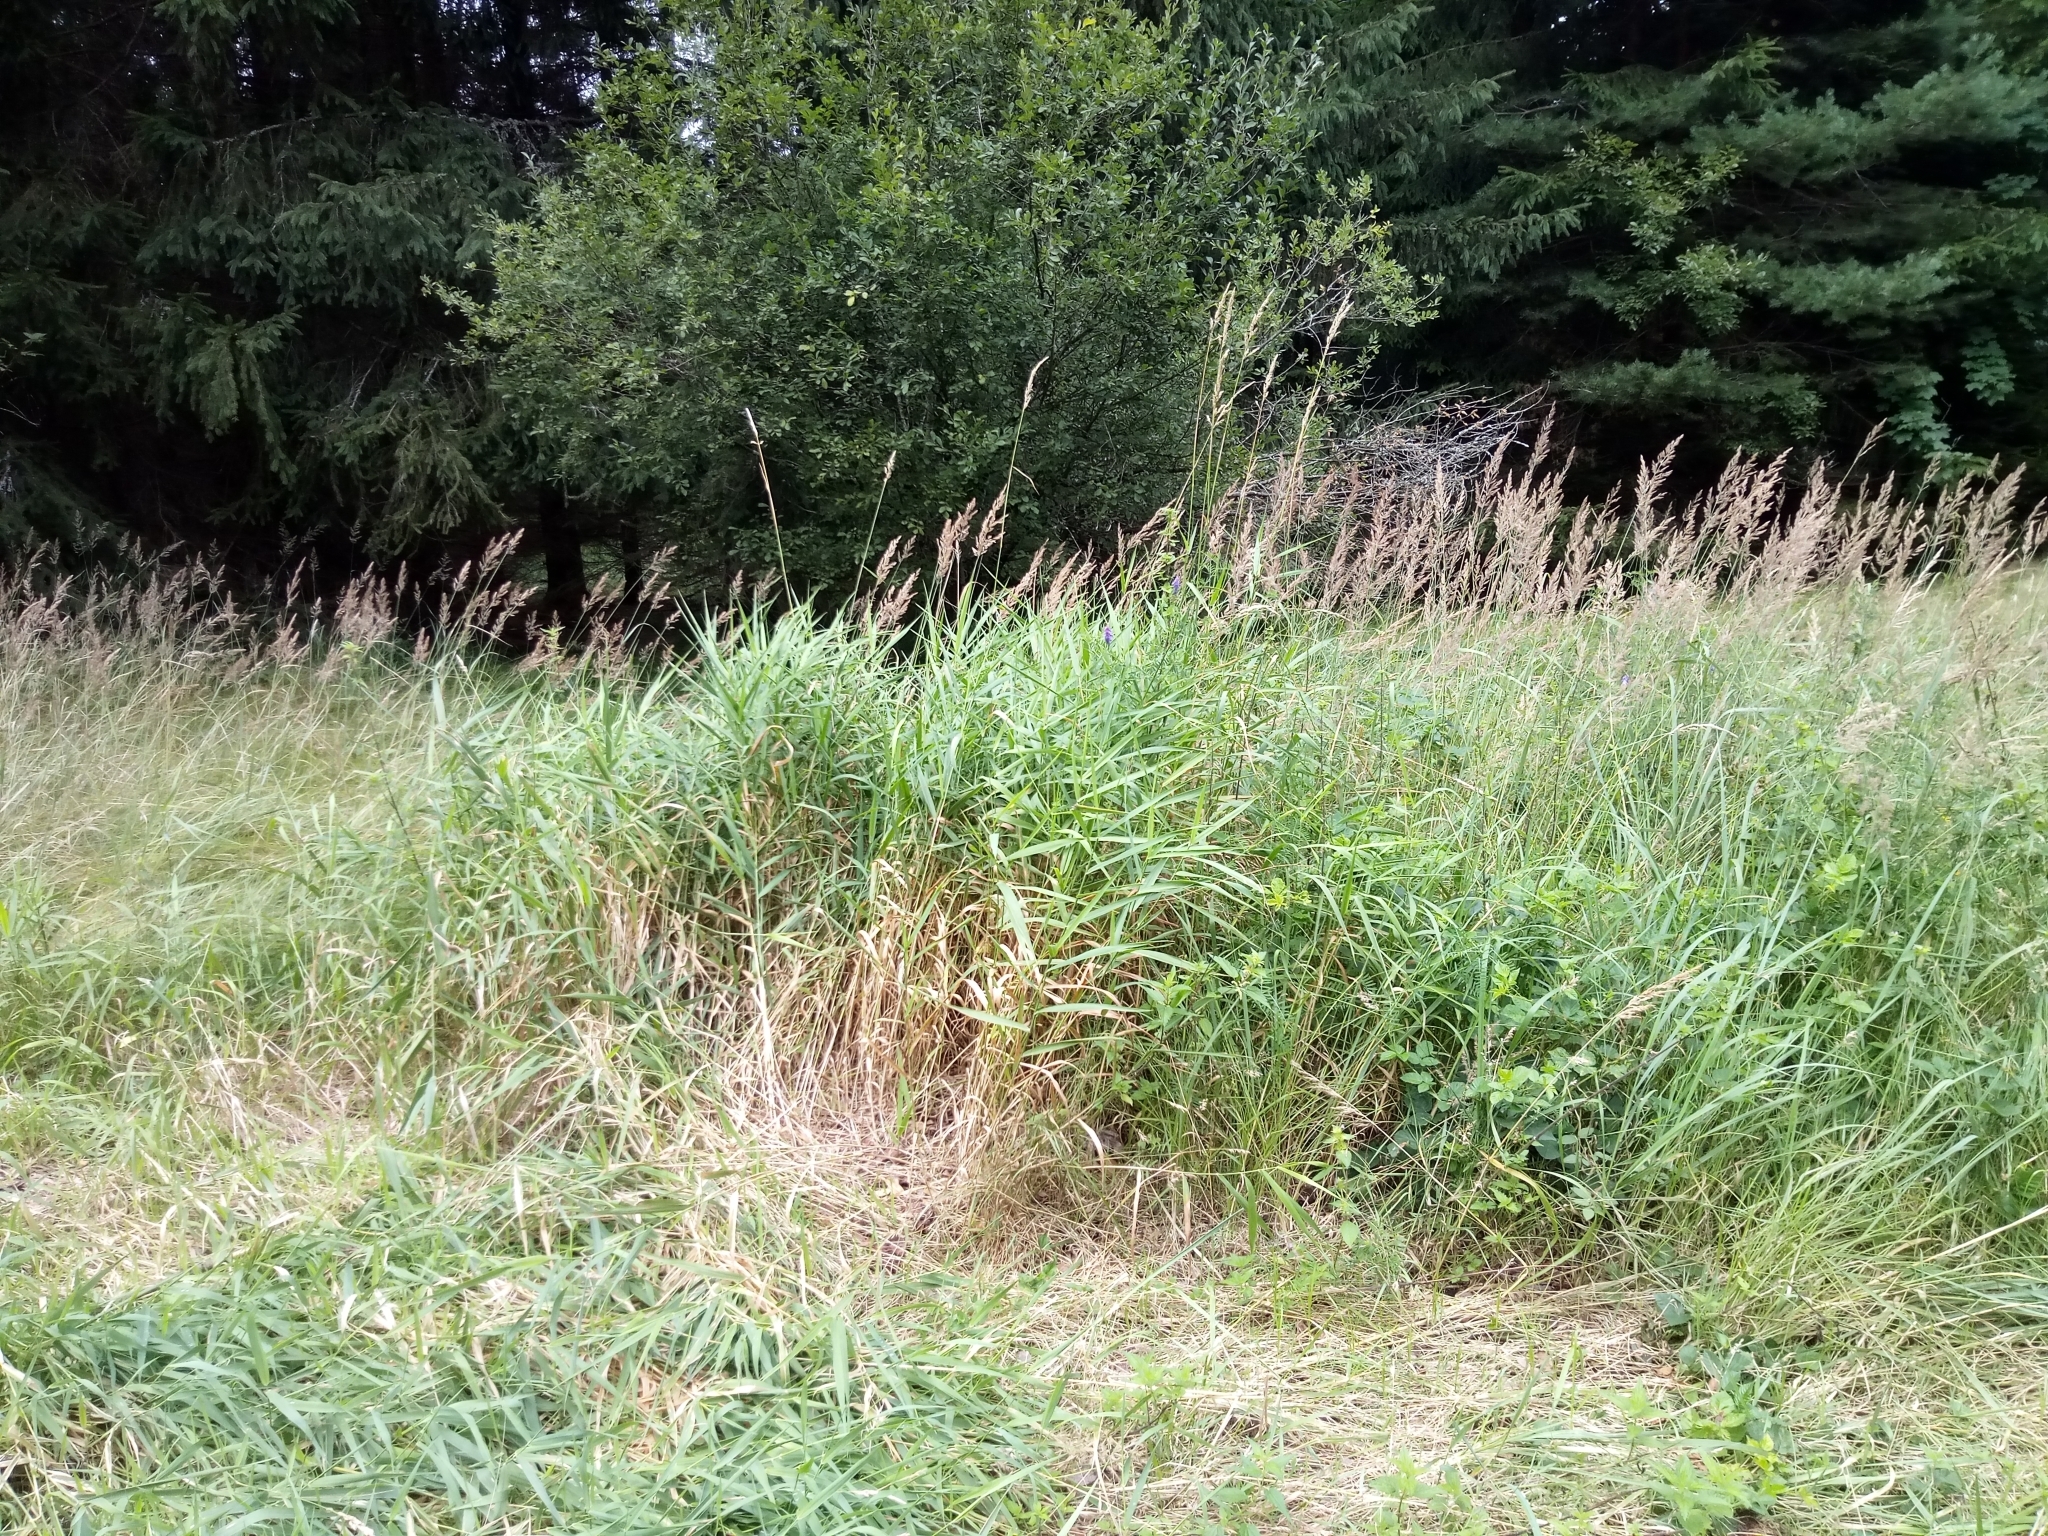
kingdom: Plantae
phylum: Tracheophyta
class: Liliopsida
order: Poales
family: Poaceae
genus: Phalaris
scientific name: Phalaris arundinacea
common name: Reed canary-grass
